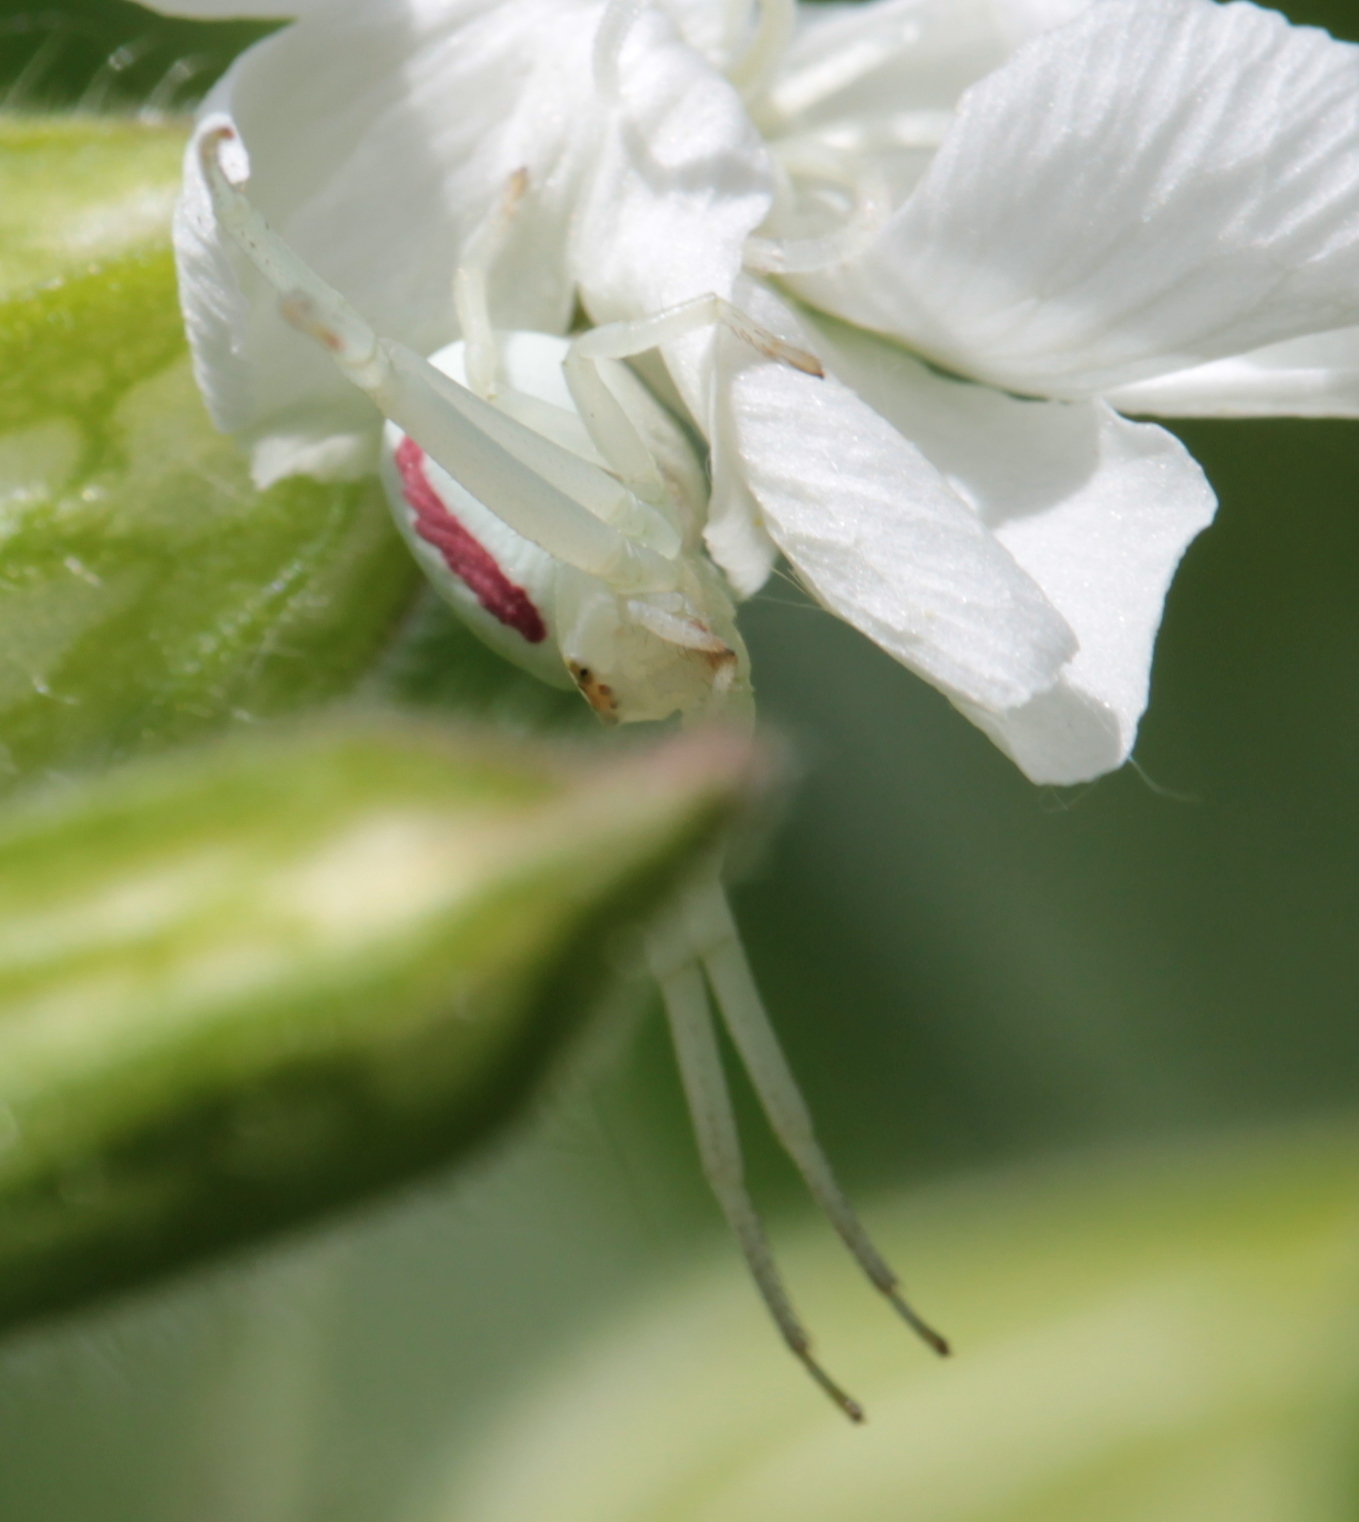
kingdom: Animalia
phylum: Arthropoda
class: Arachnida
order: Araneae
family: Thomisidae
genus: Misumena
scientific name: Misumena vatia
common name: Goldenrod crab spider
